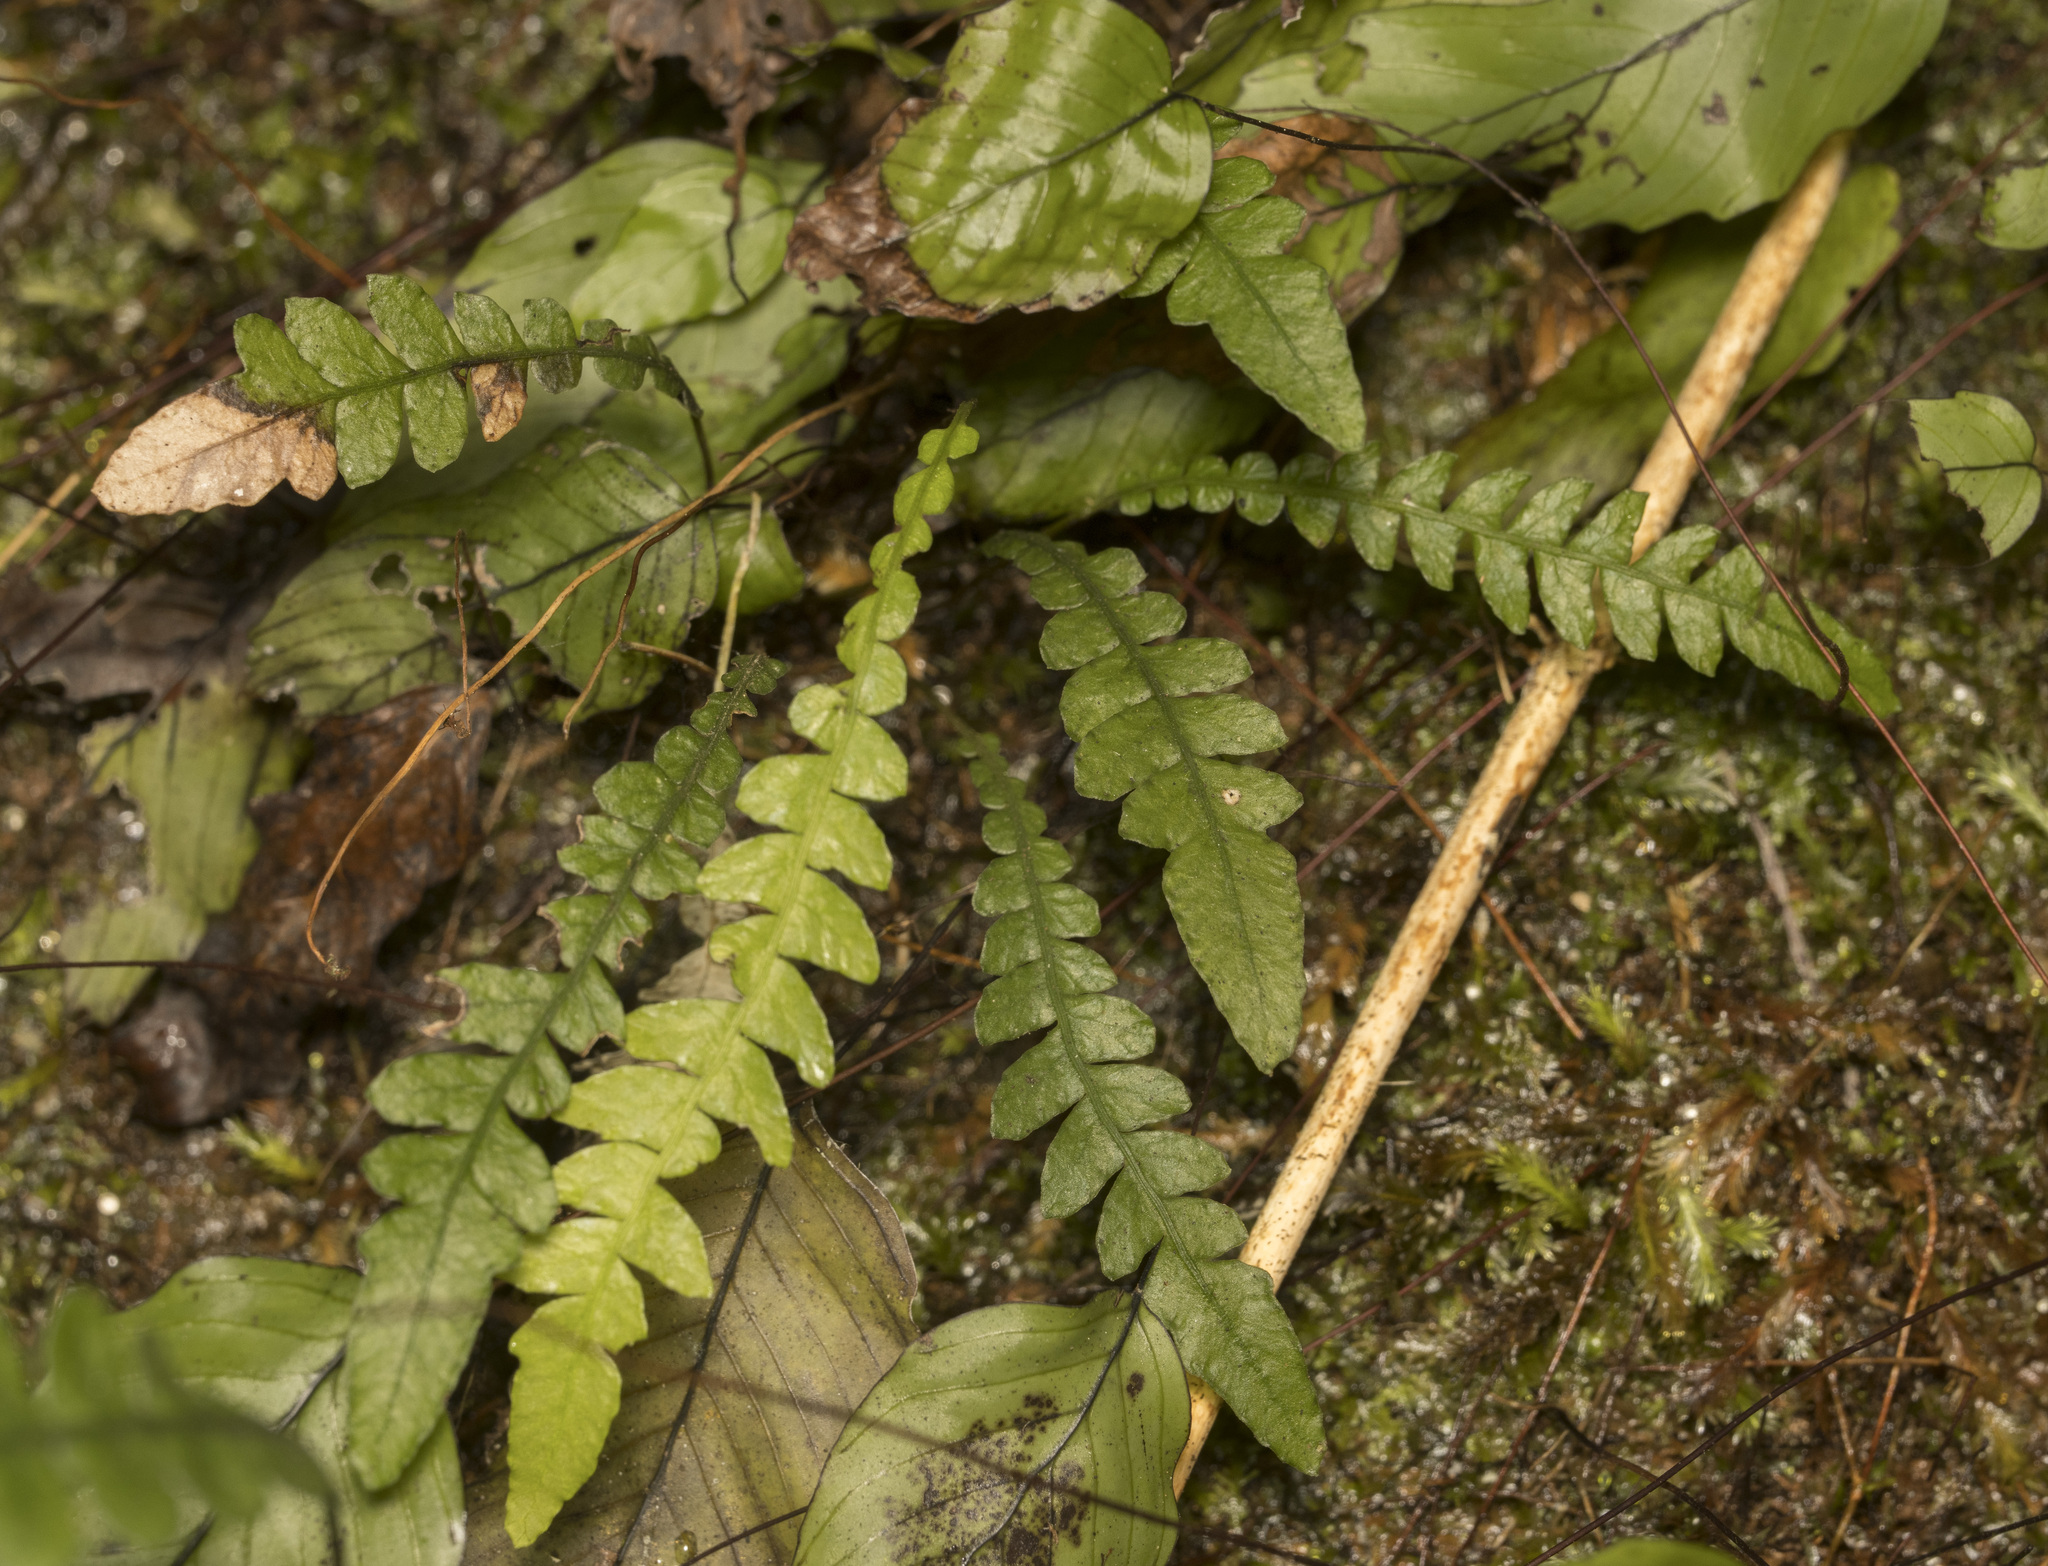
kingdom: Plantae
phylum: Tracheophyta
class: Polypodiopsida
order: Polypodiales
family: Blechnaceae
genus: Blechnum
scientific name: Blechnum corralense
